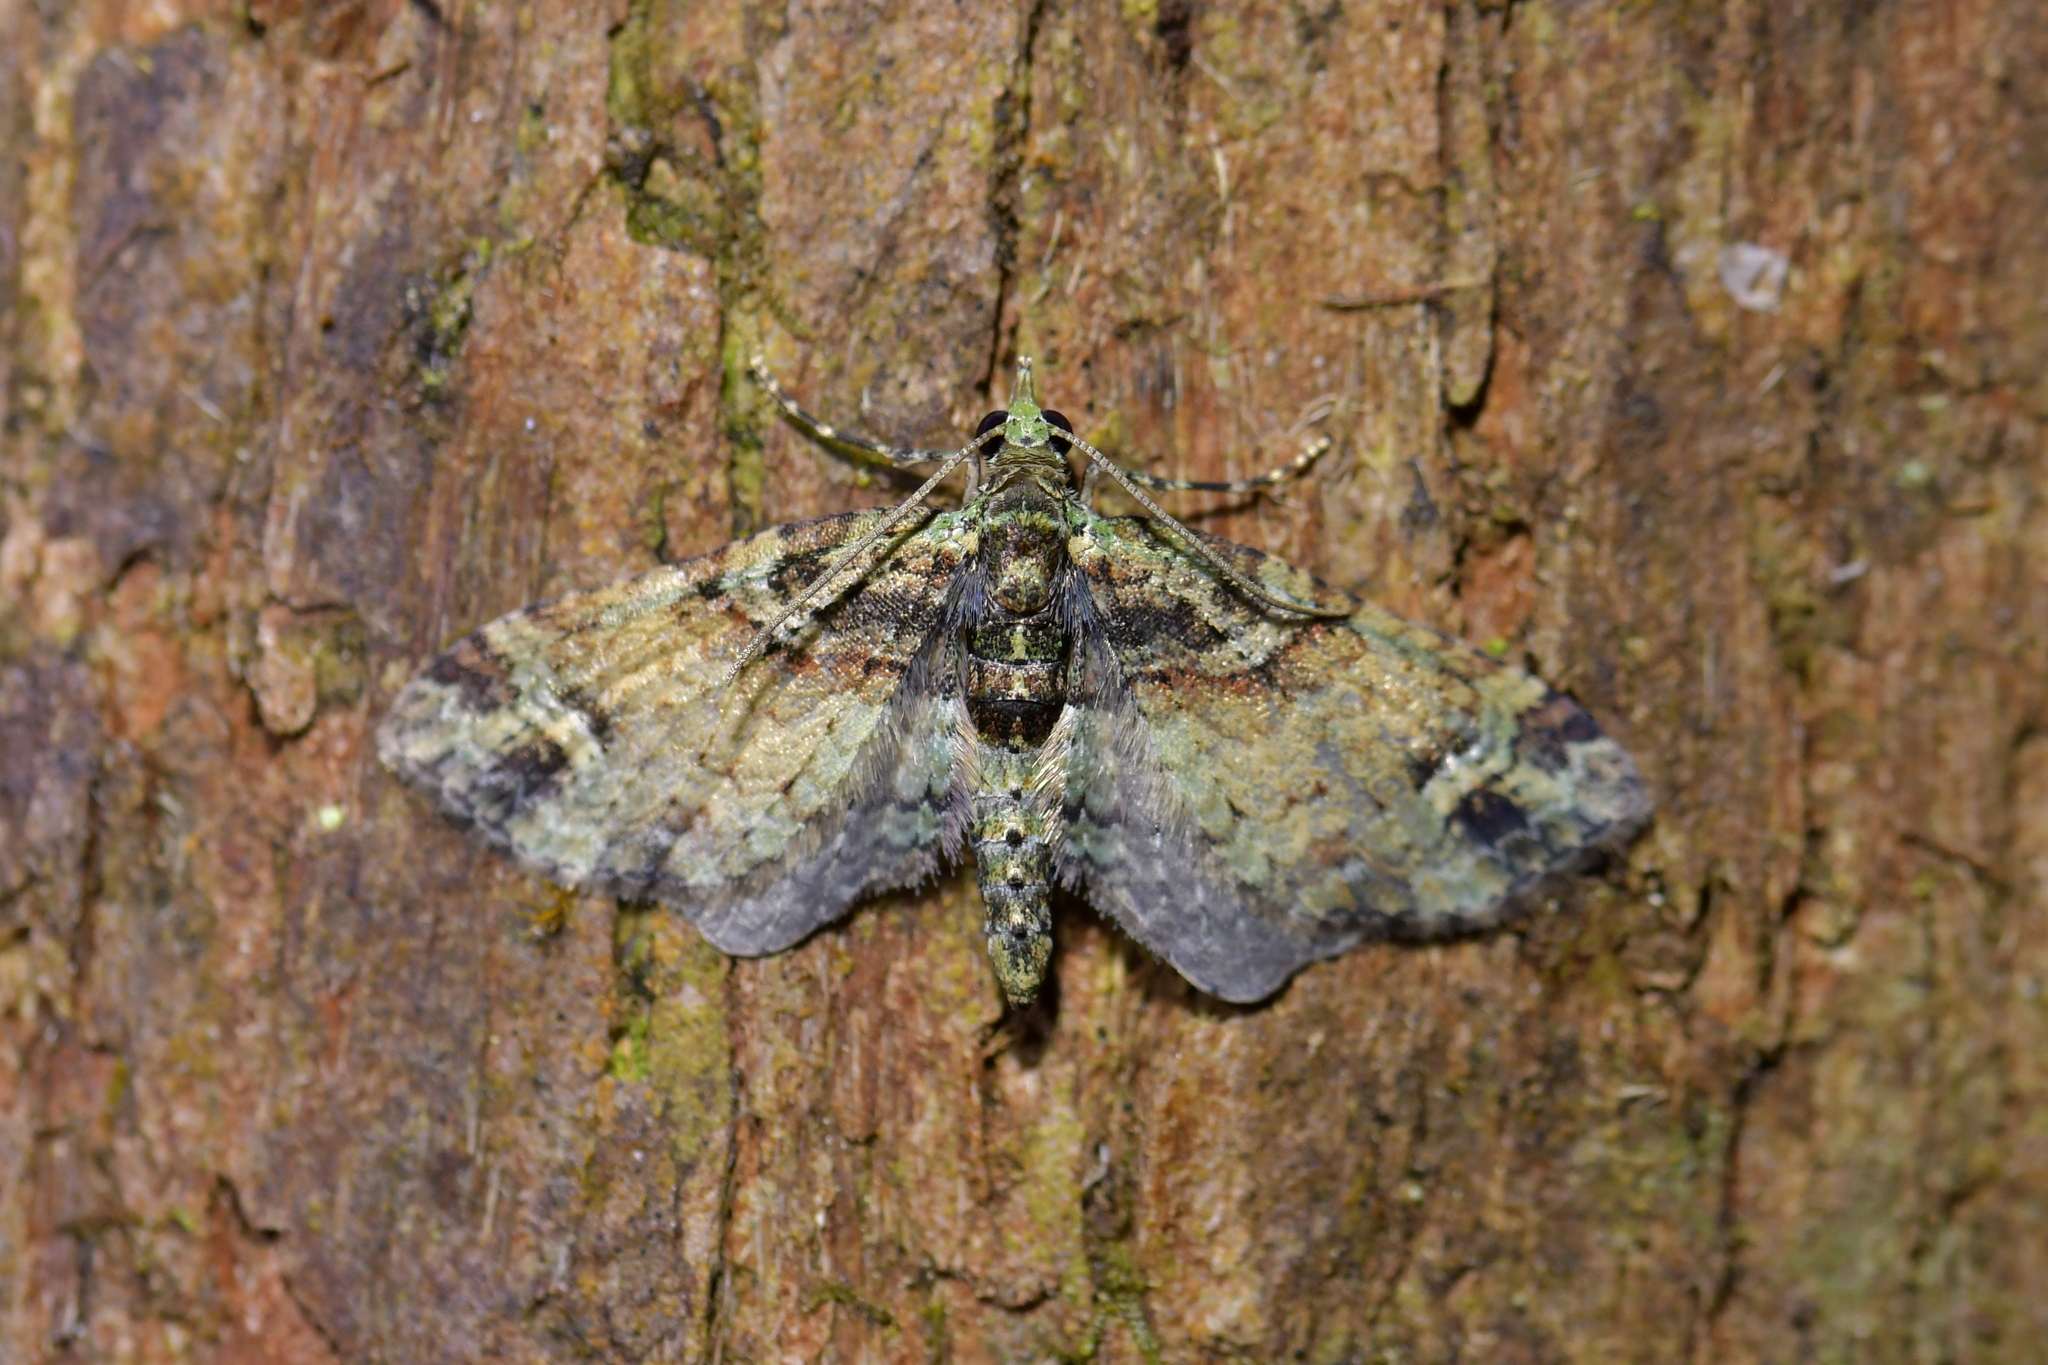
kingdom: Animalia
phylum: Arthropoda
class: Insecta
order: Lepidoptera
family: Geometridae
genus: Idaea
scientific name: Idaea mutanda
